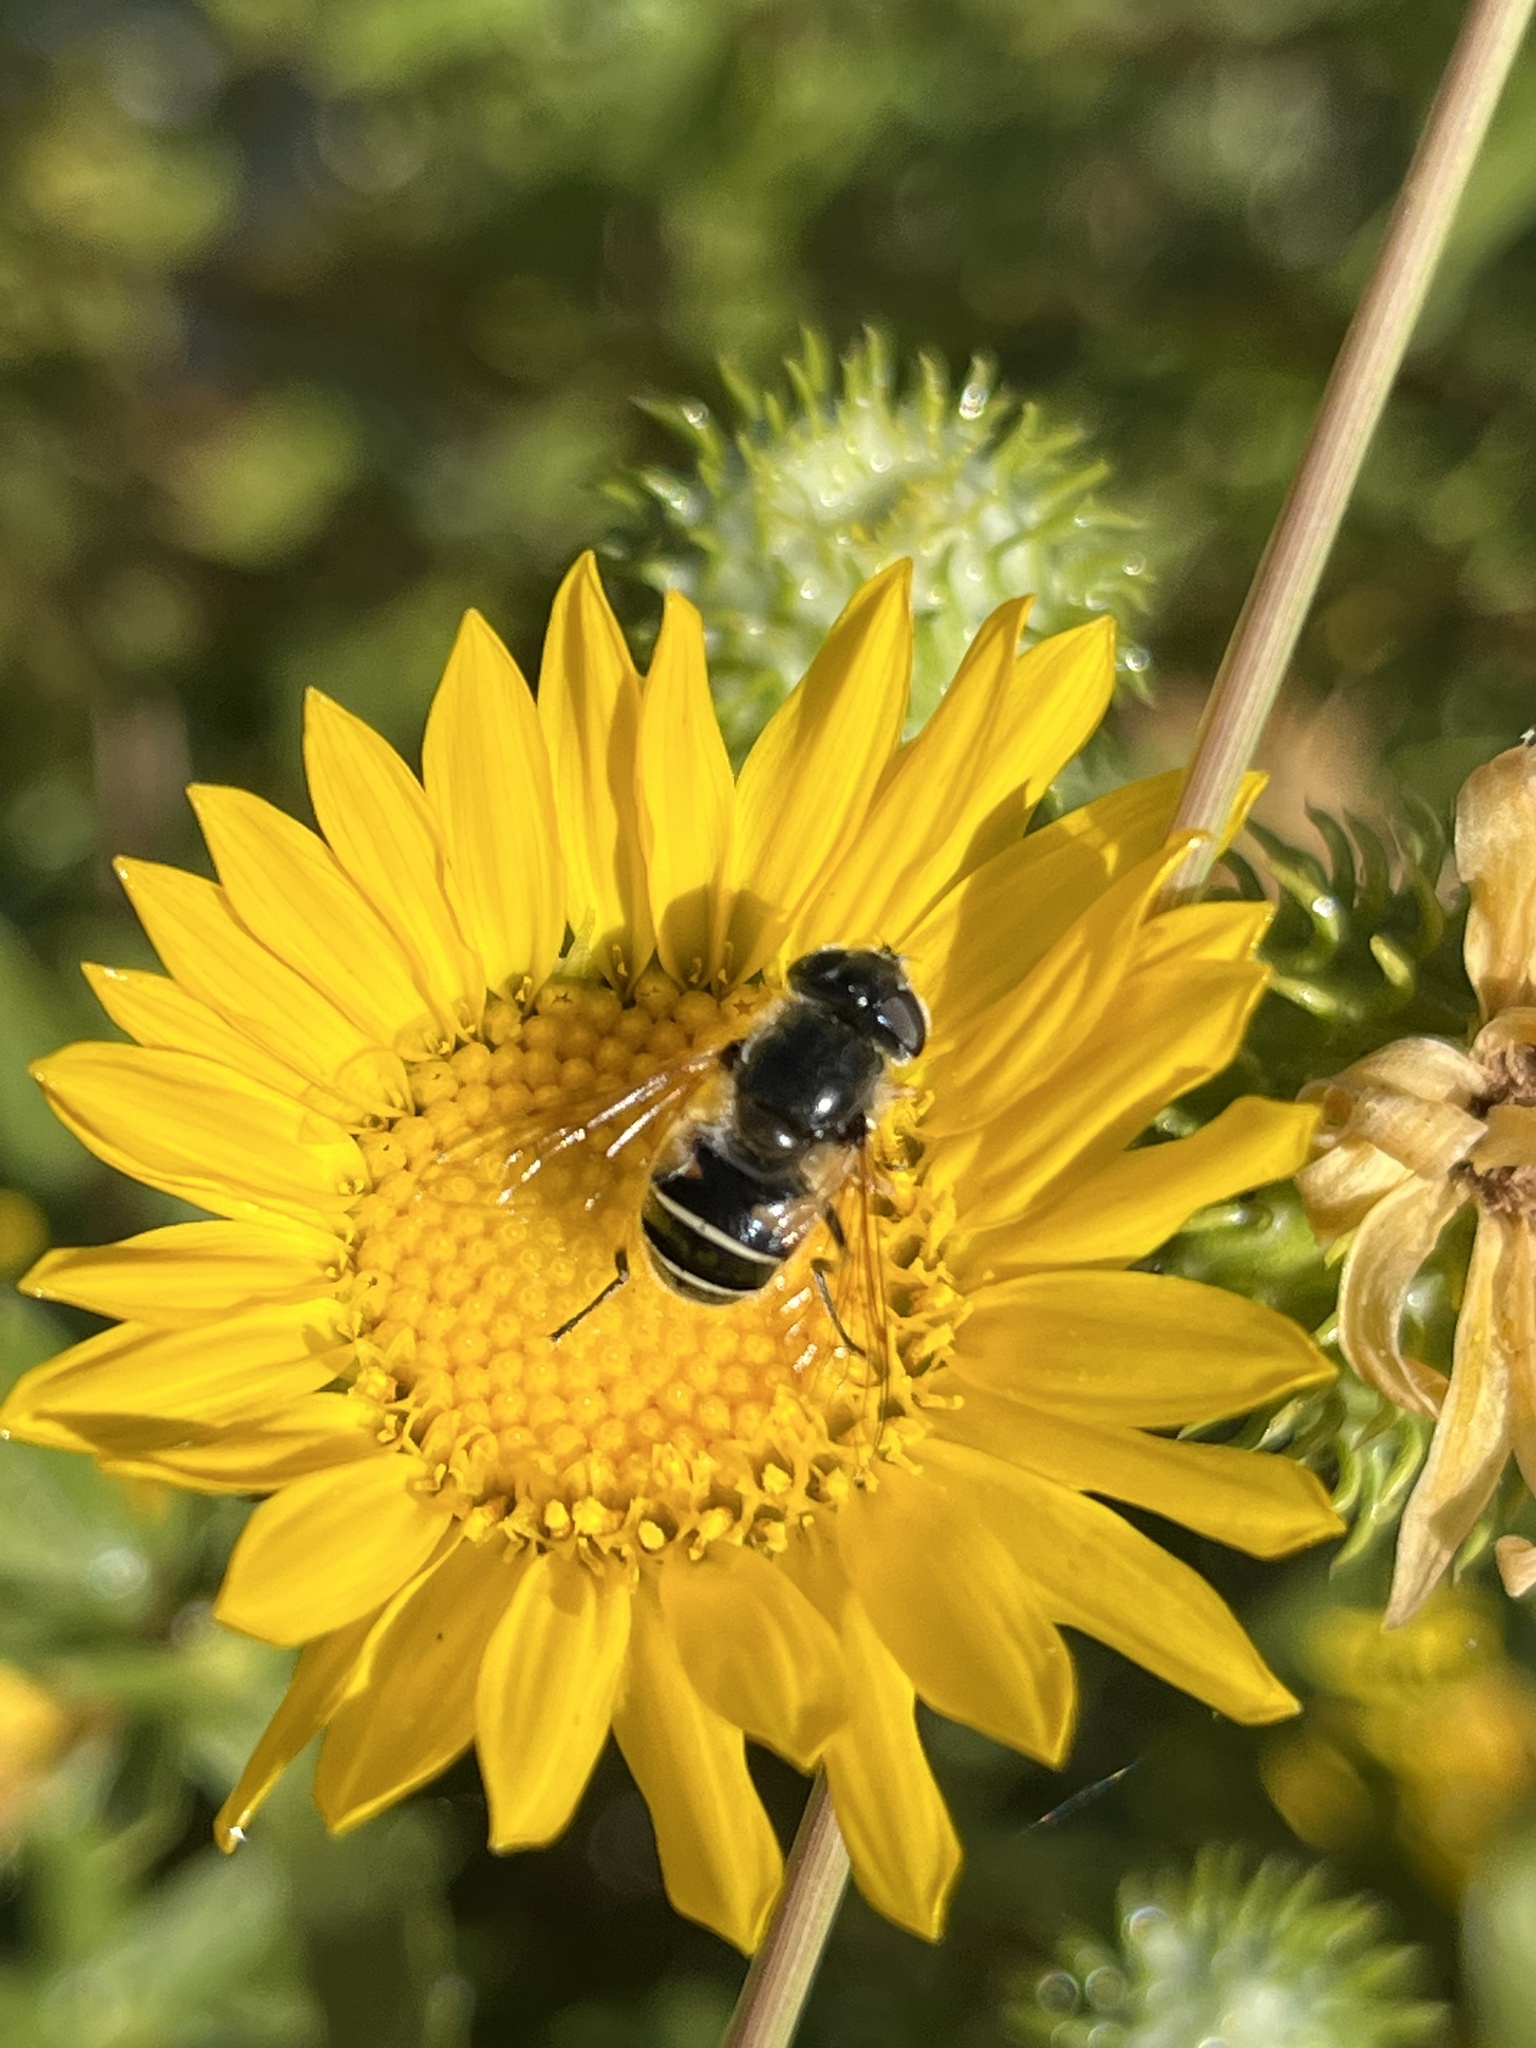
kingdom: Animalia
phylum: Arthropoda
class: Insecta
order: Diptera
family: Syrphidae
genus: Eristalis
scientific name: Eristalis hirta
